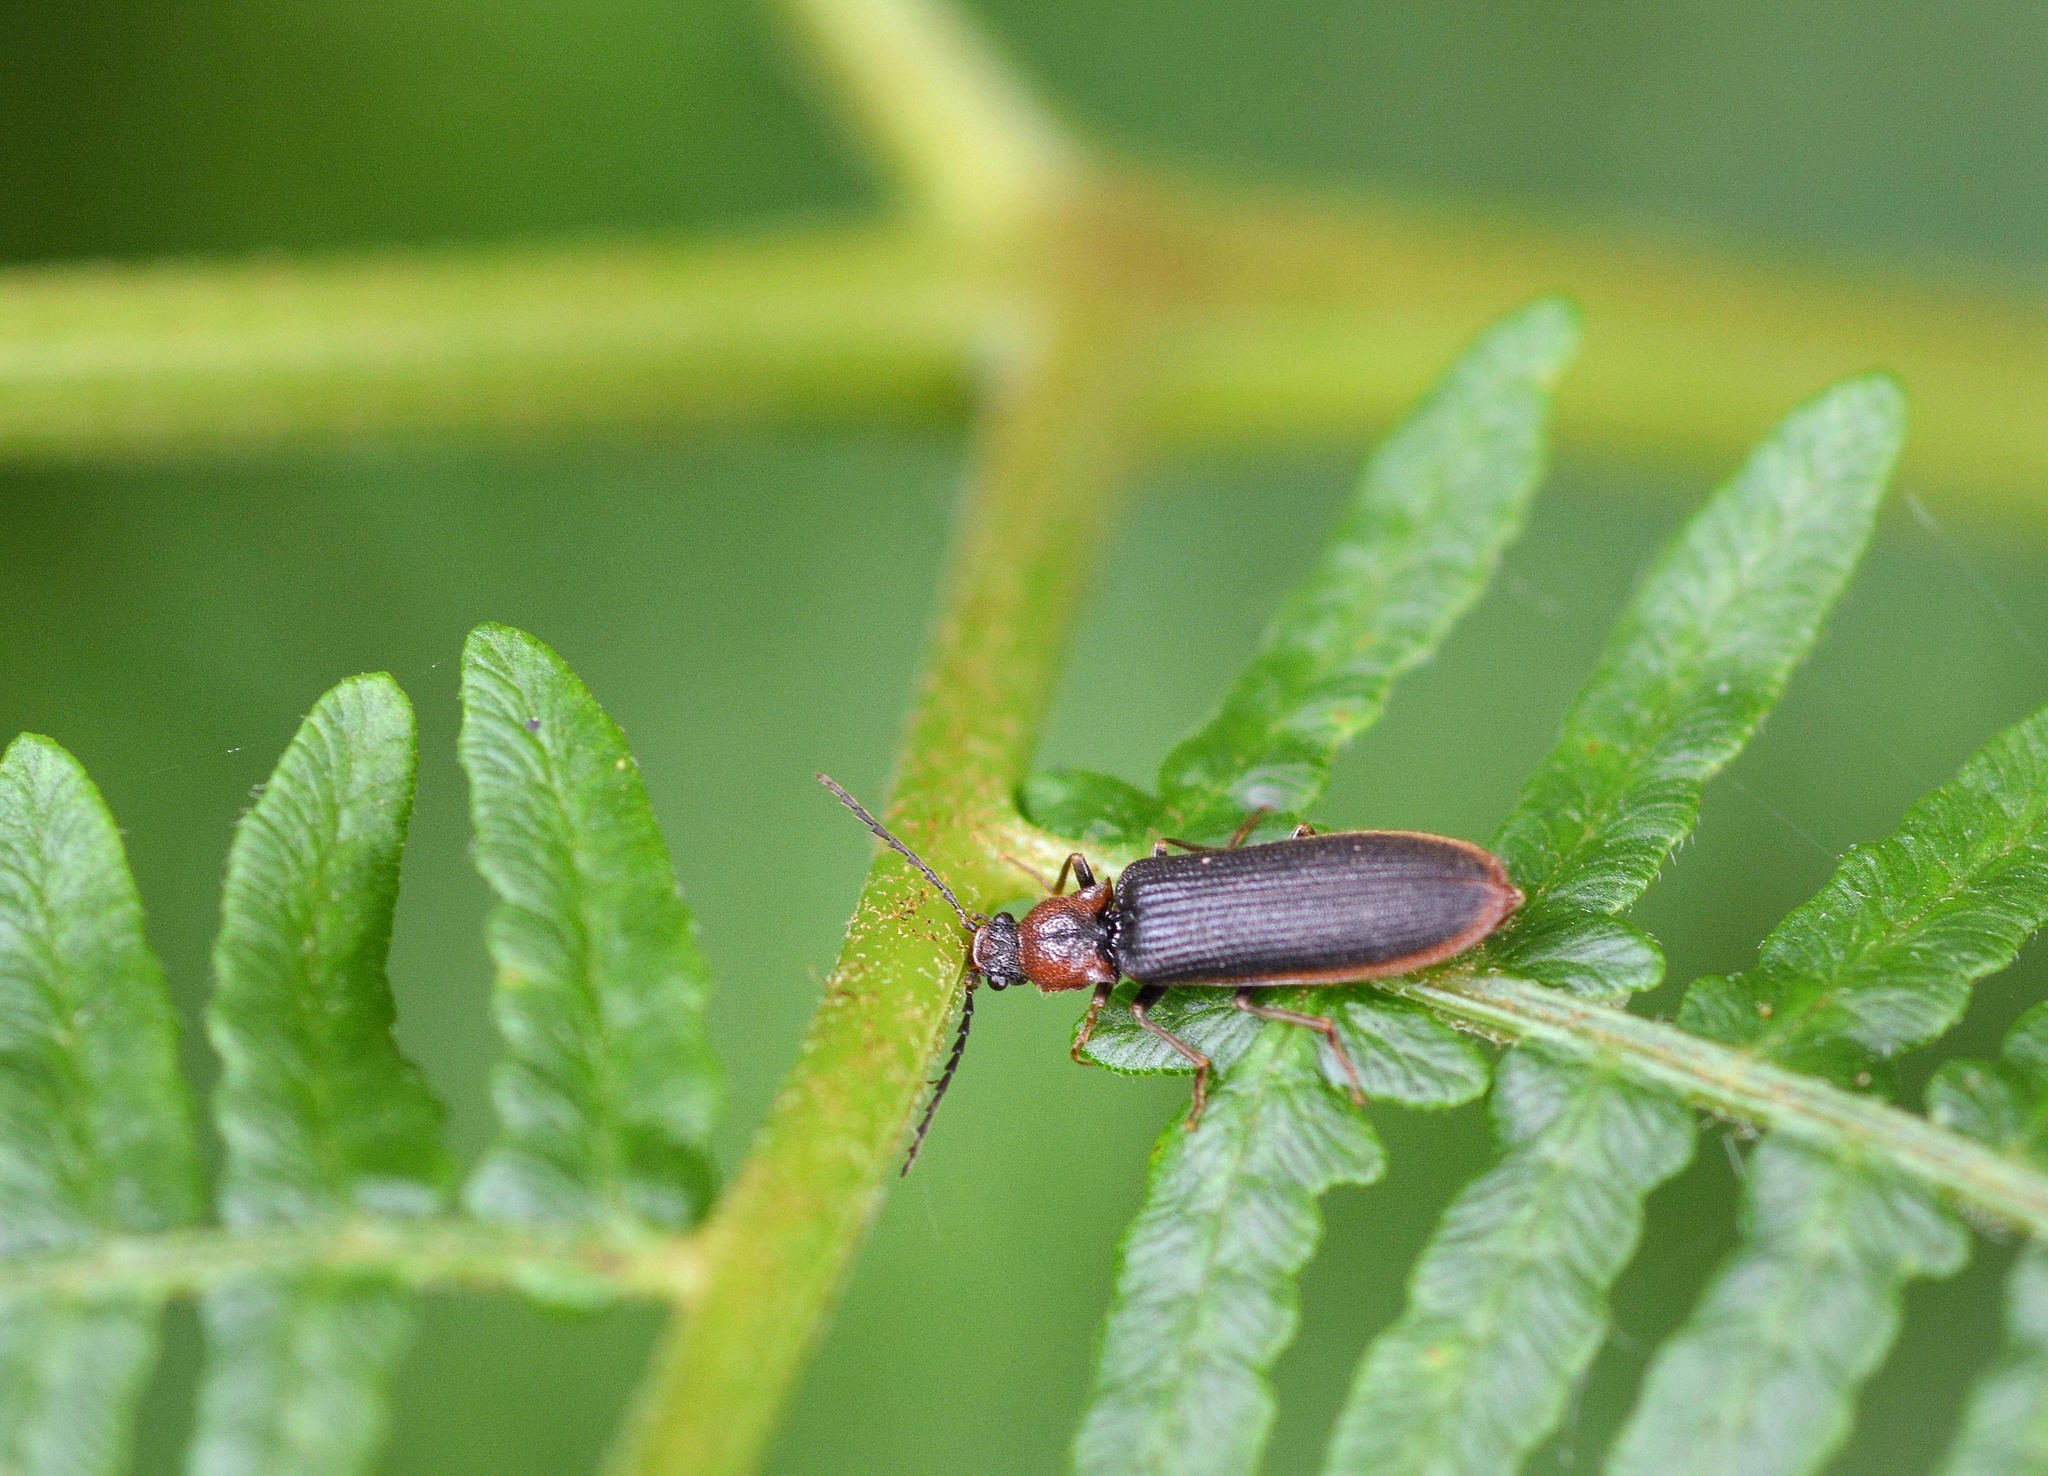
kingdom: Animalia
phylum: Arthropoda
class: Insecta
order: Coleoptera
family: Elateridae
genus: Denticollis
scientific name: Denticollis linearis
